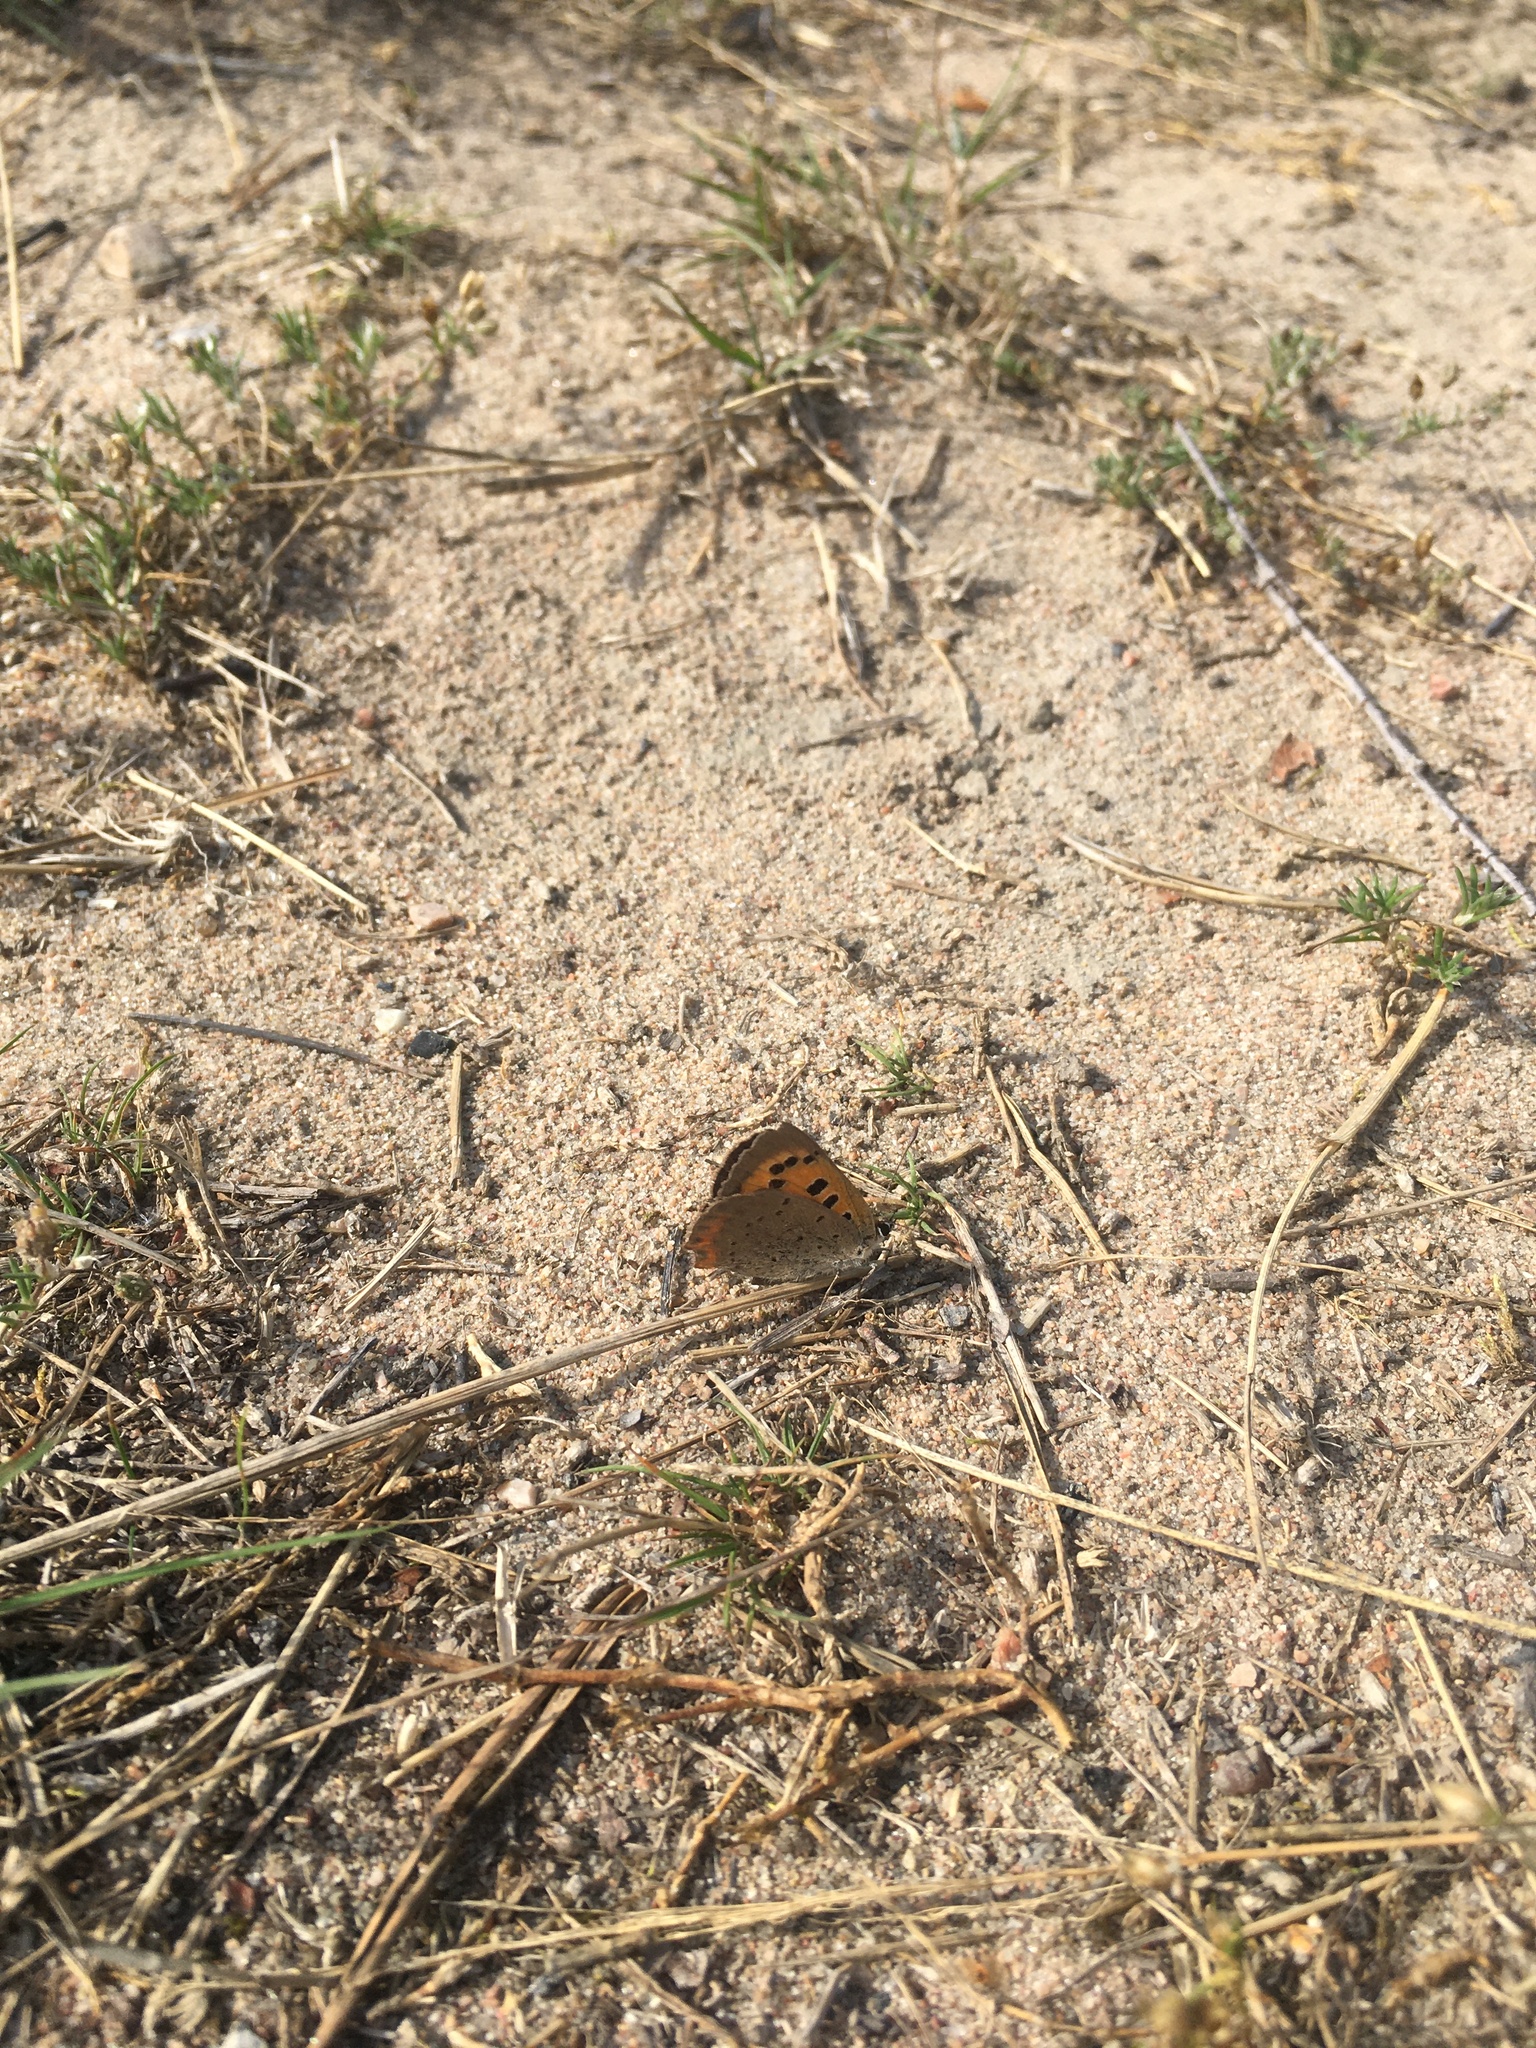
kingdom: Animalia
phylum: Arthropoda
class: Insecta
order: Lepidoptera
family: Lycaenidae
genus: Lycaena
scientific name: Lycaena phlaeas
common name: Small copper
